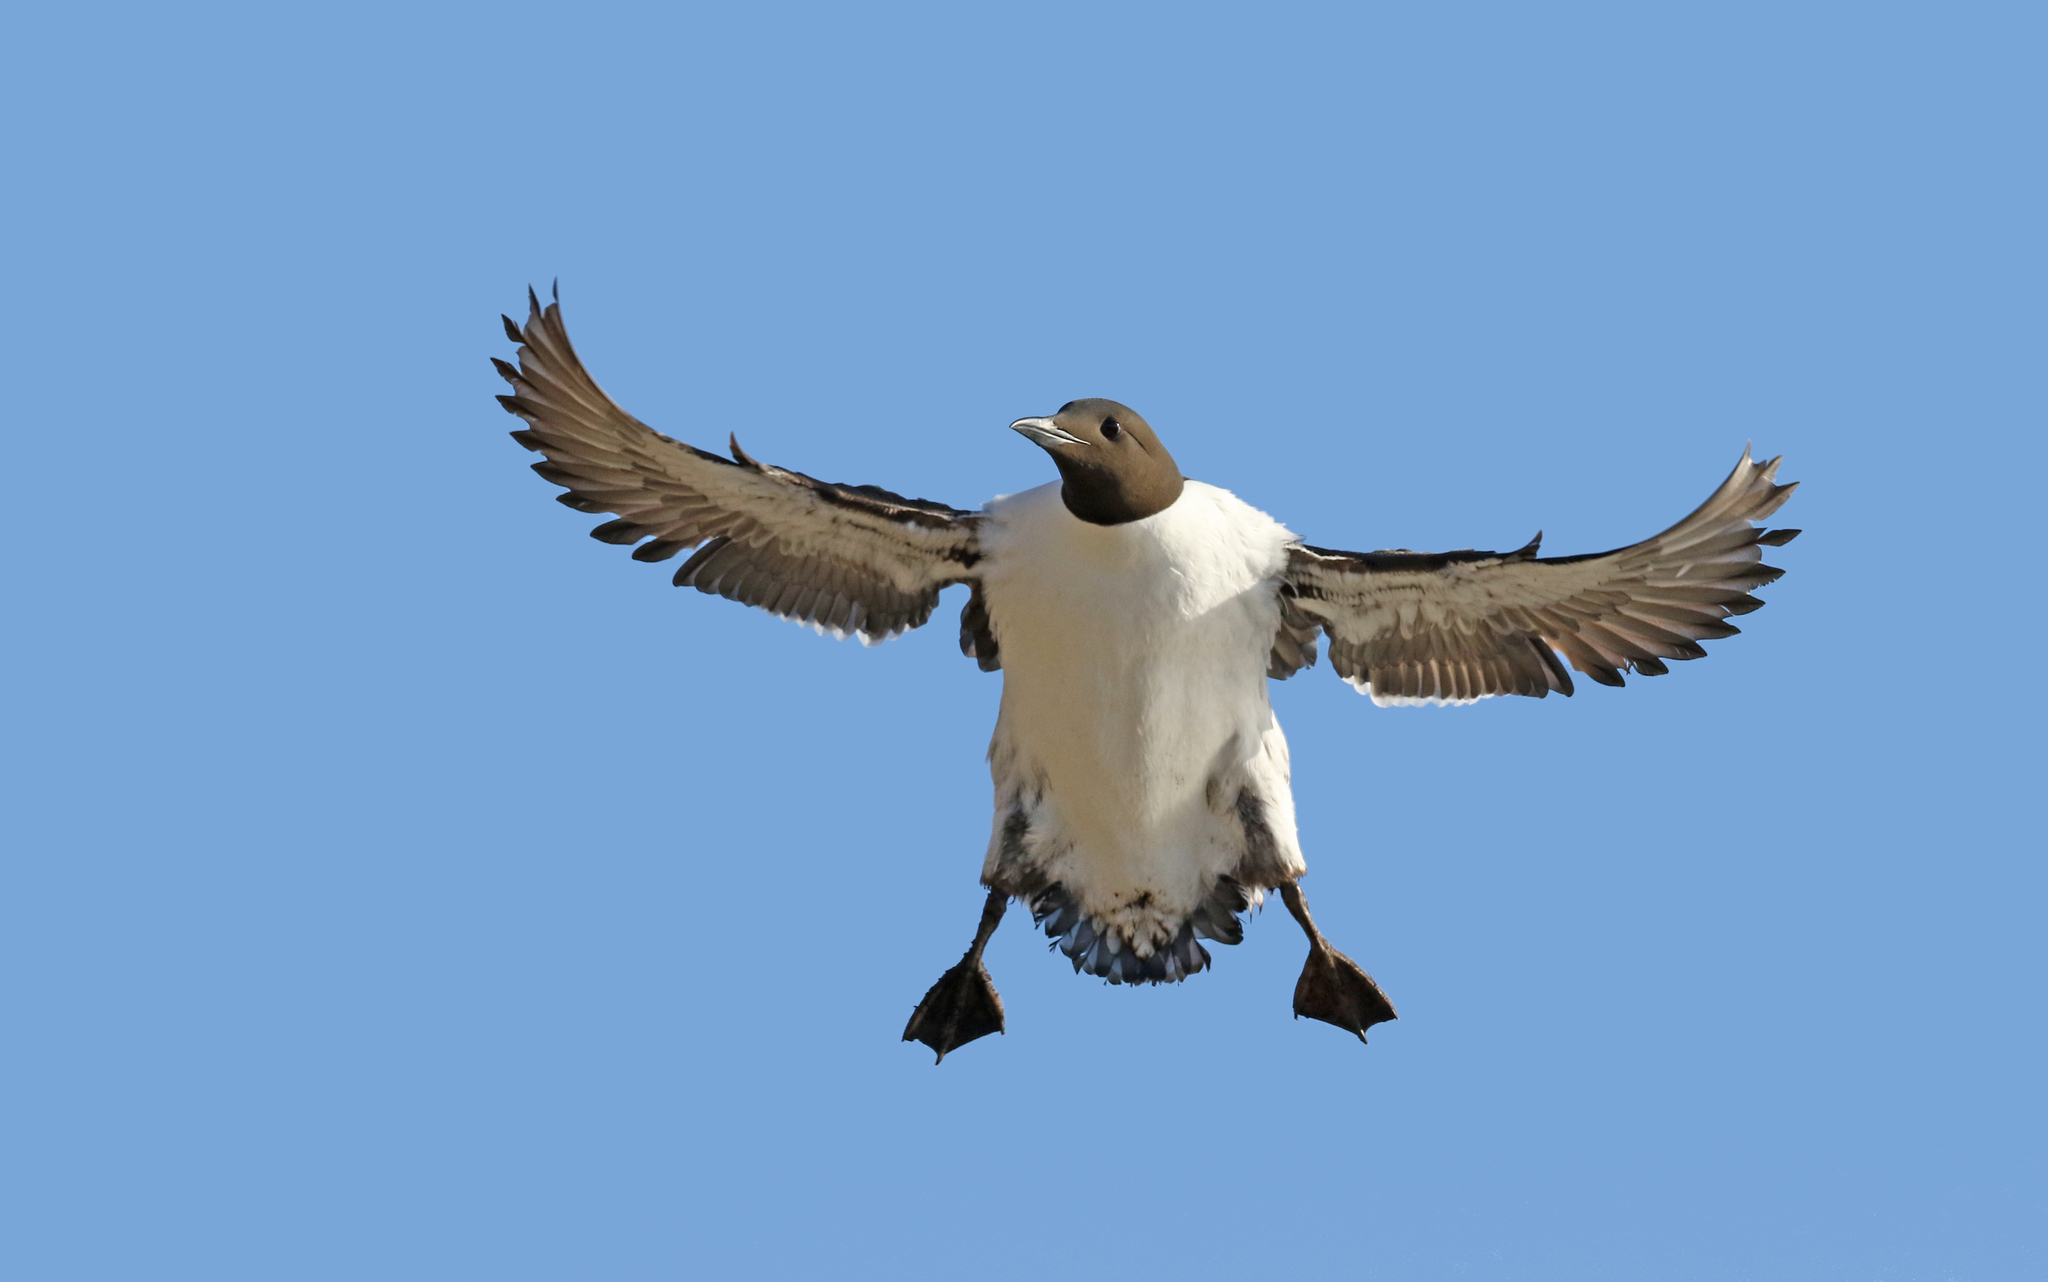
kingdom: Animalia
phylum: Chordata
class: Aves
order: Charadriiformes
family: Alcidae
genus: Uria
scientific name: Uria aalge
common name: Common murre
